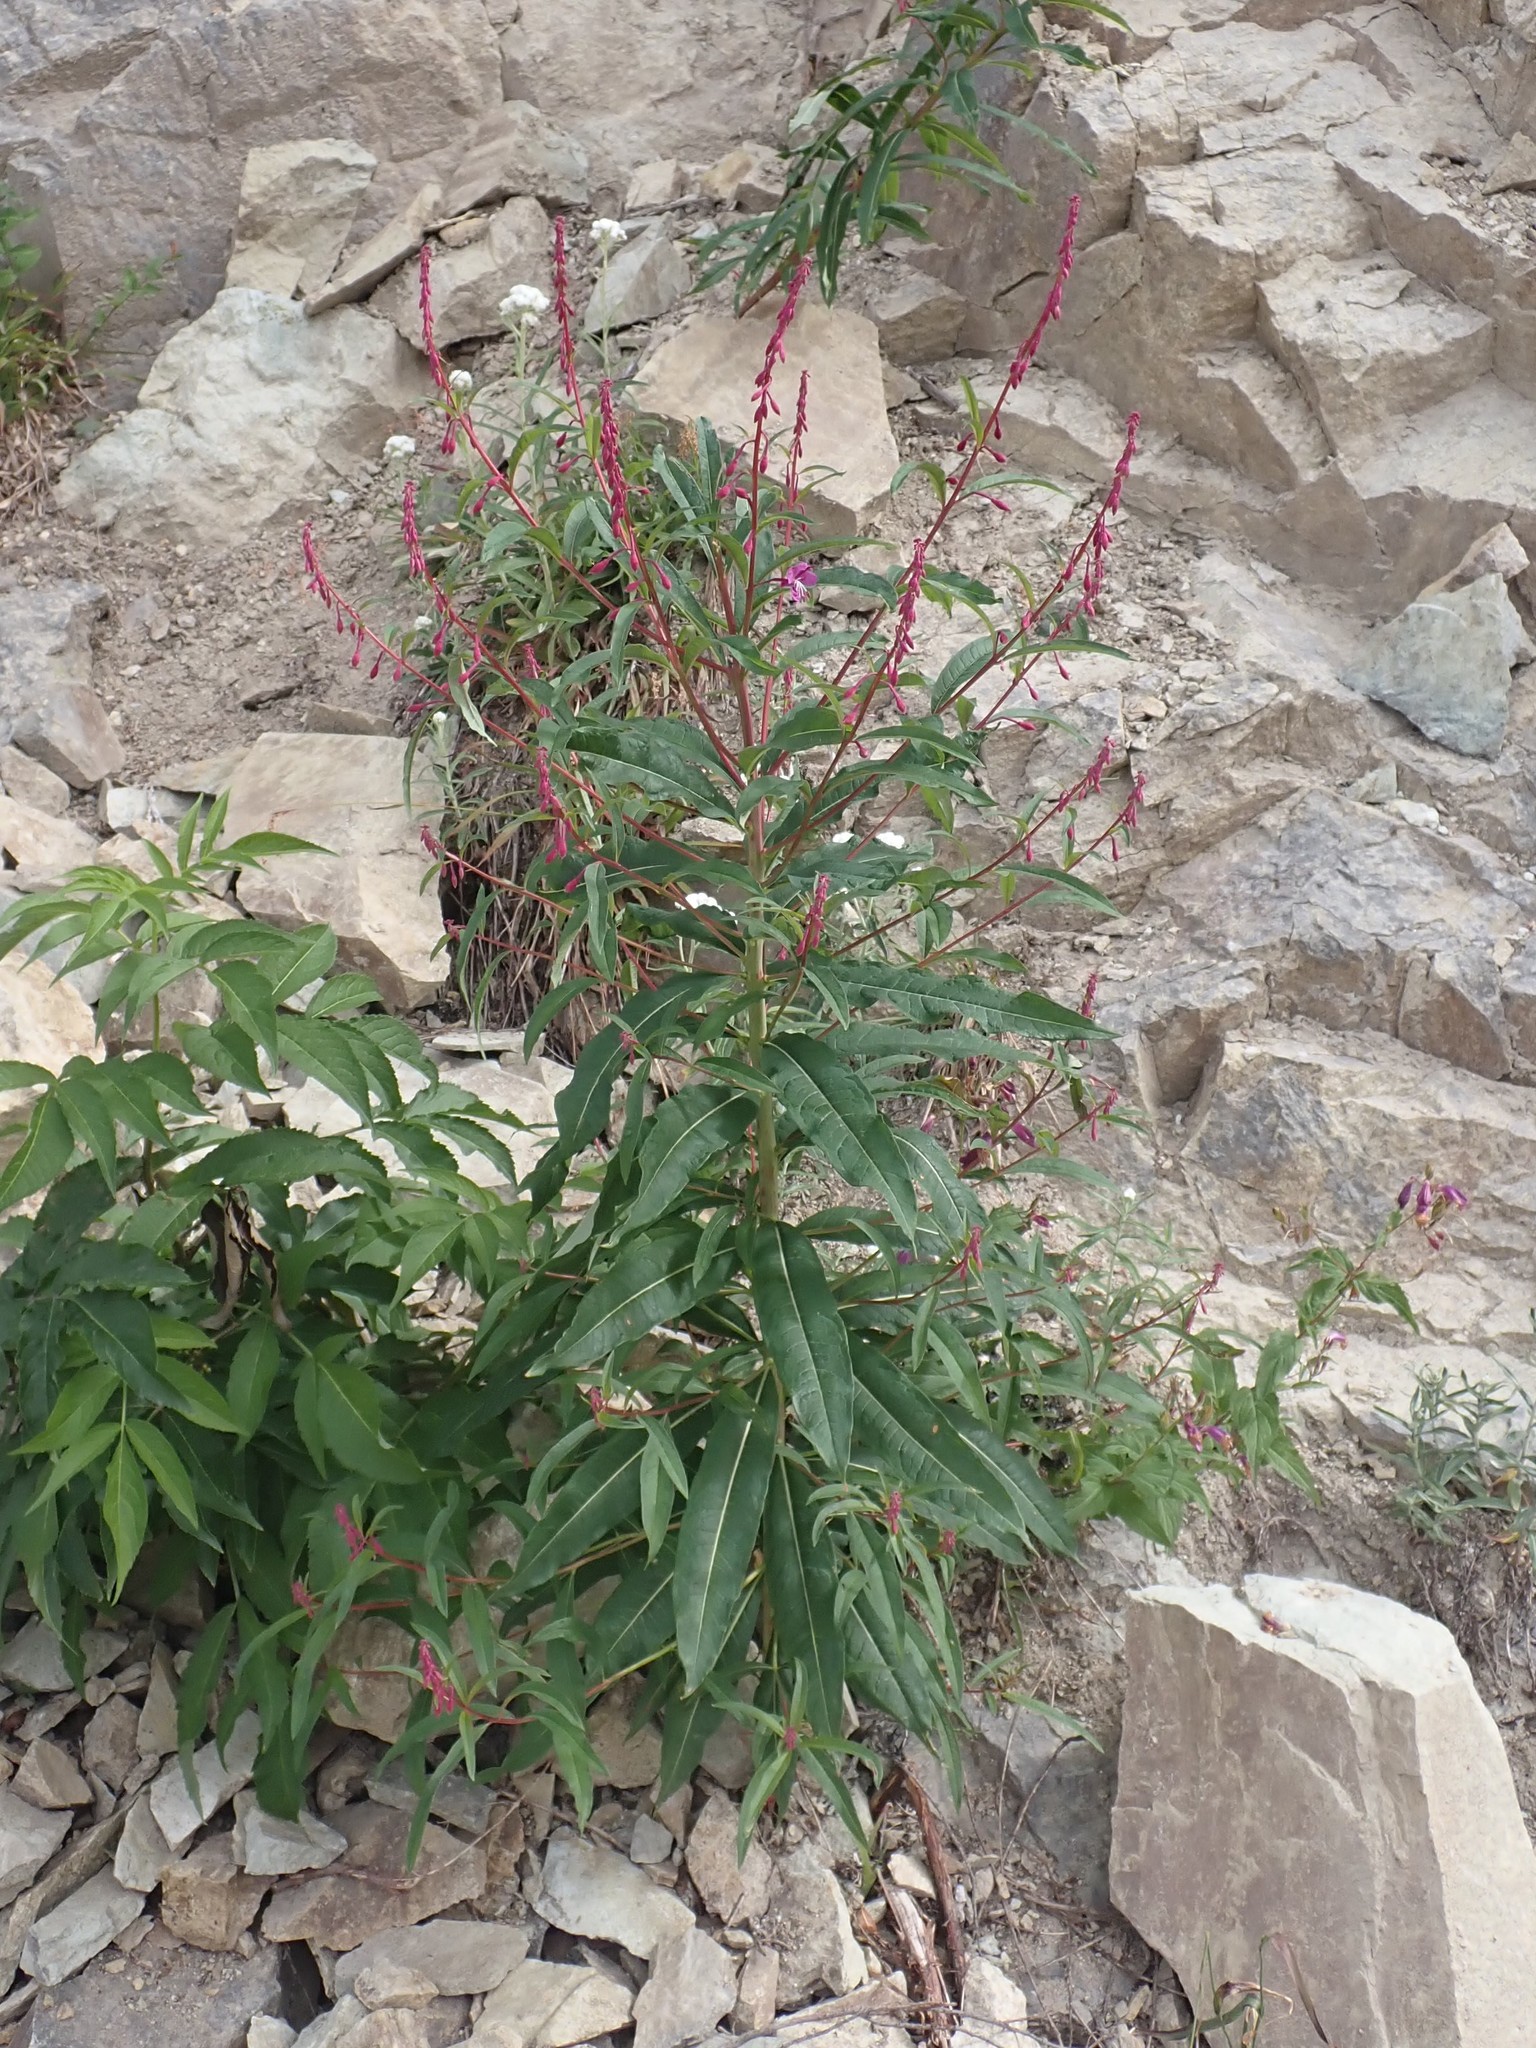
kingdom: Plantae
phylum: Tracheophyta
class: Magnoliopsida
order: Myrtales
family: Onagraceae
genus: Chamaenerion
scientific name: Chamaenerion angustifolium
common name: Fireweed
